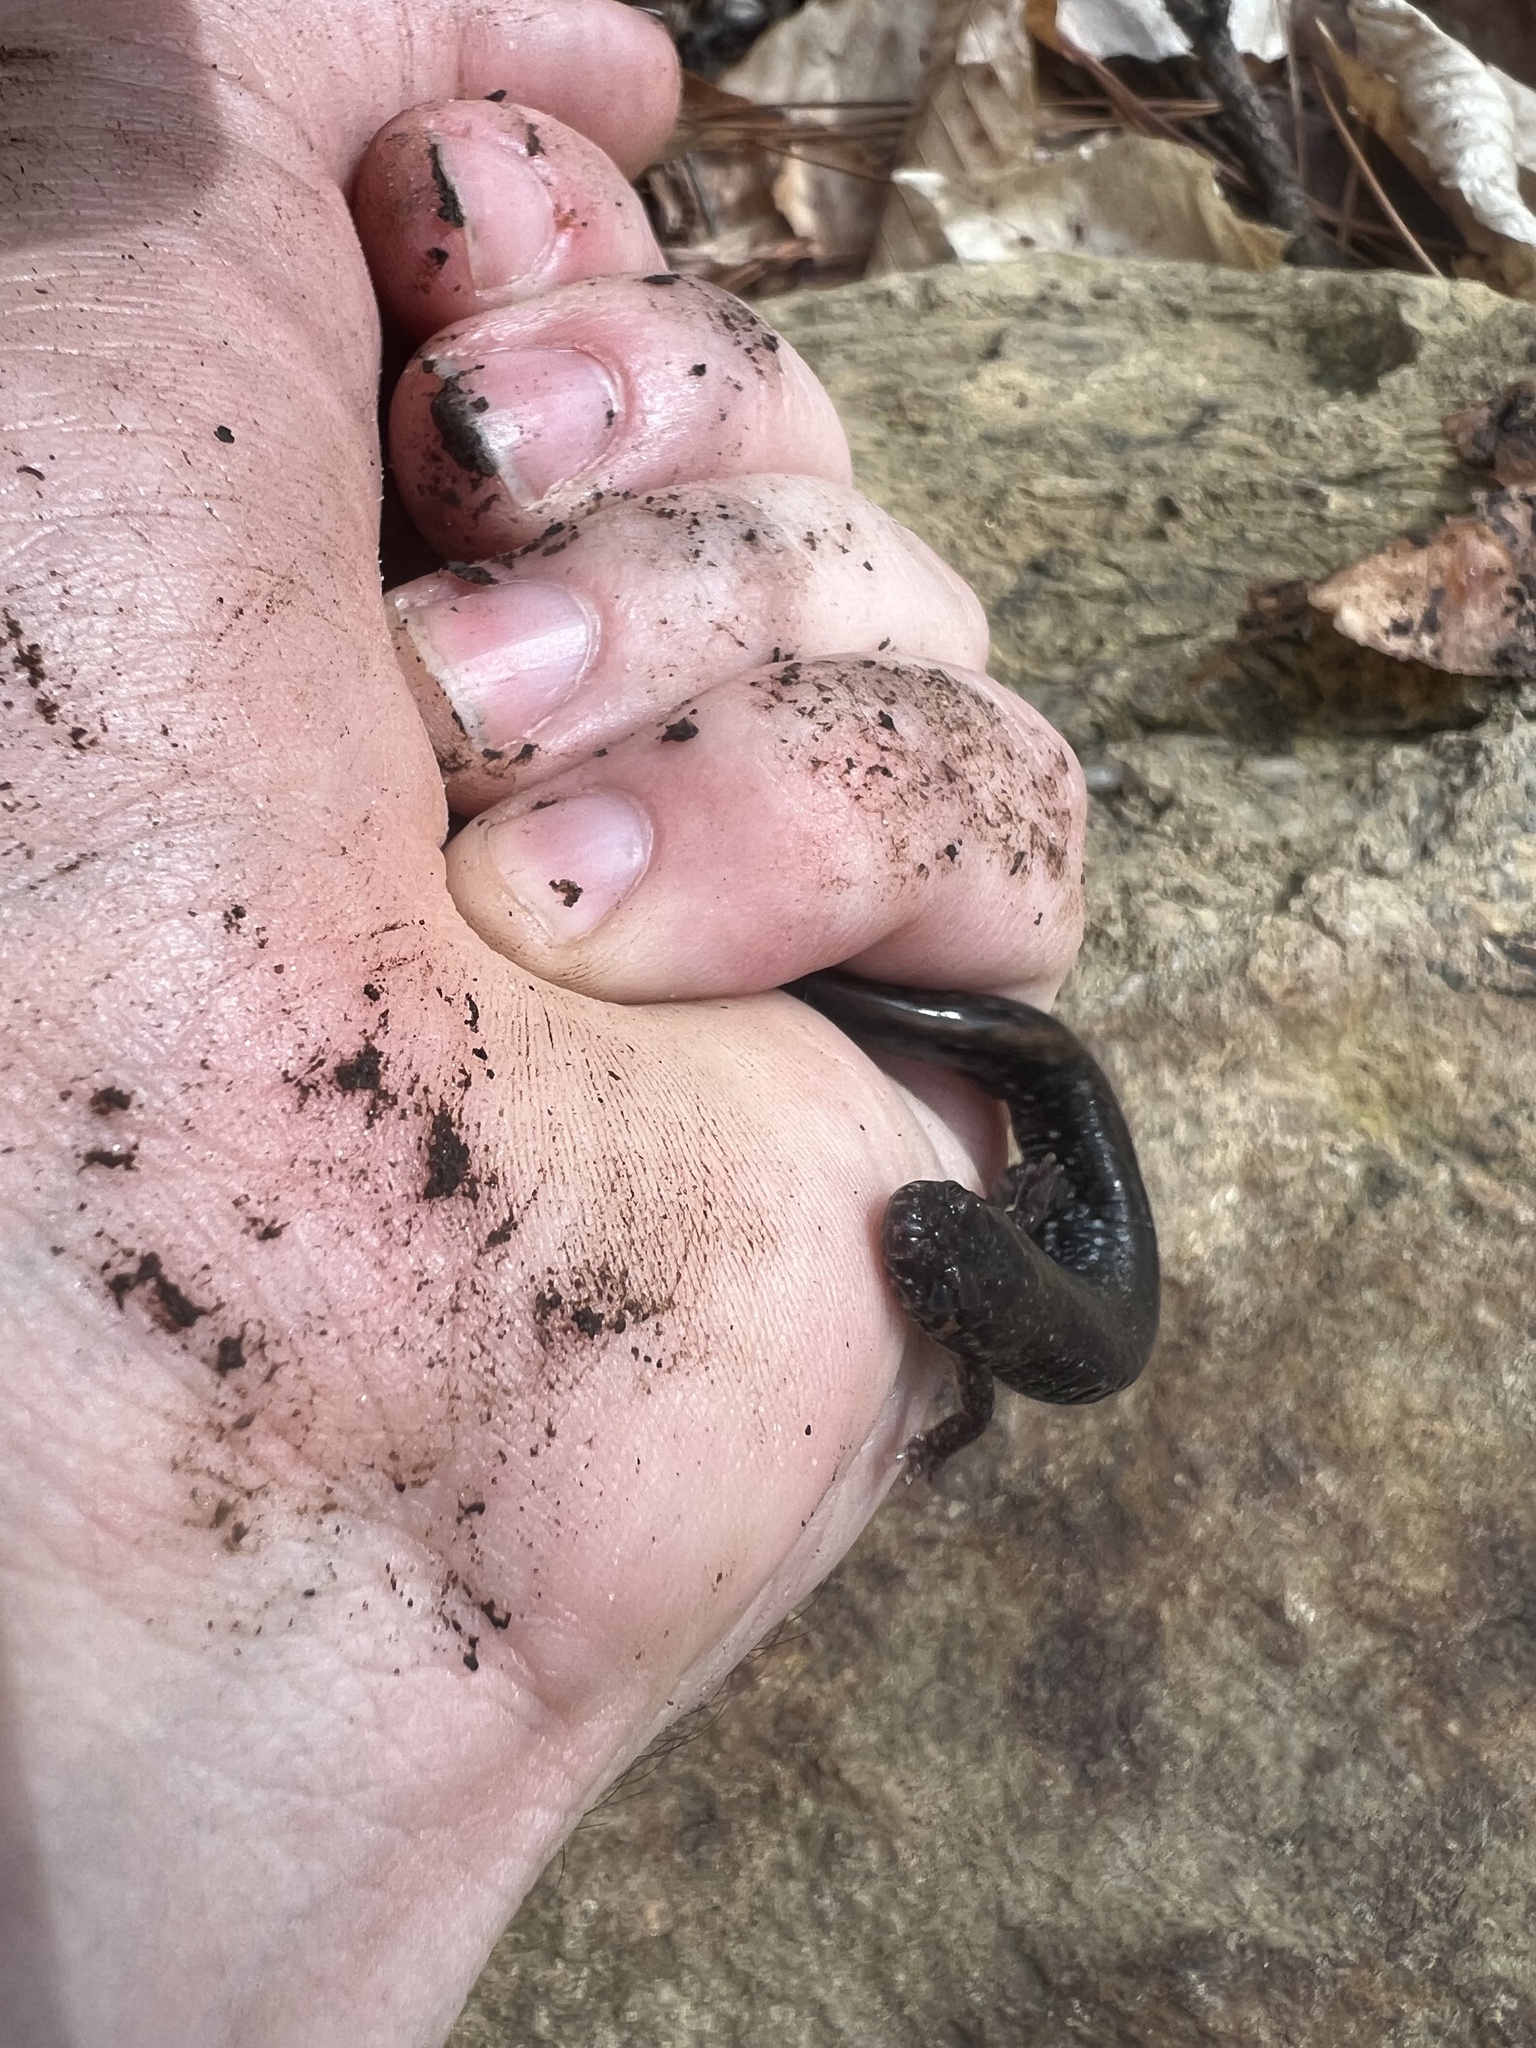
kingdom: Animalia
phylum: Chordata
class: Amphibia
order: Caudata
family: Plethodontidae
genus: Desmognathus
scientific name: Desmognathus
